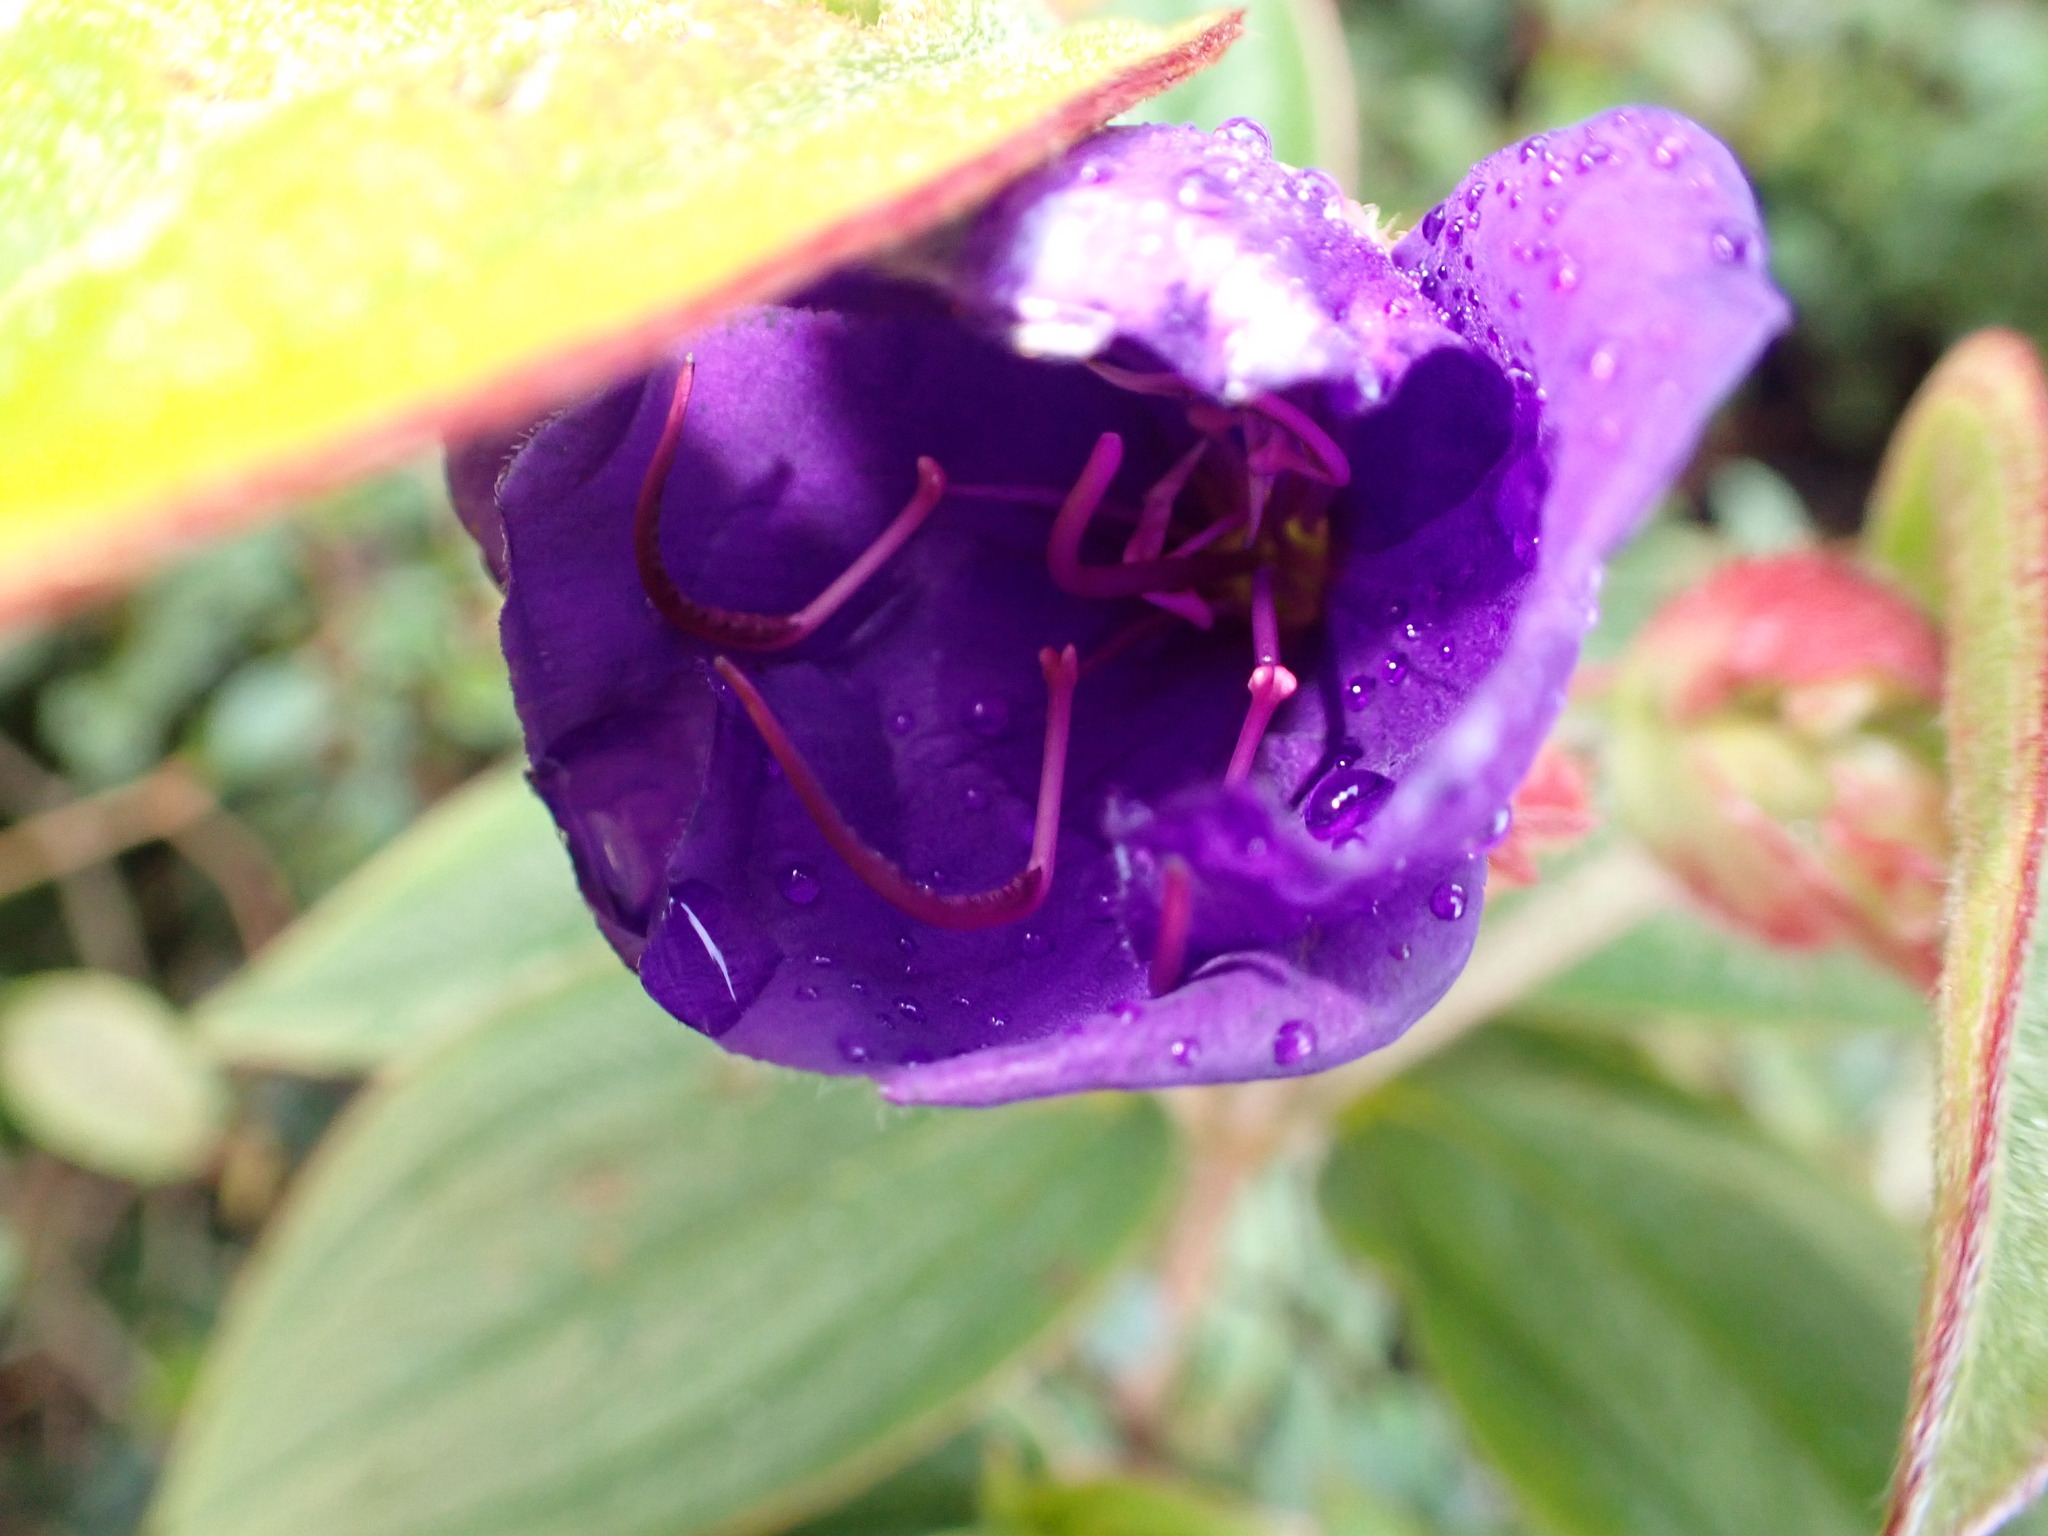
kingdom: Plantae
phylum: Tracheophyta
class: Magnoliopsida
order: Myrtales
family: Melastomataceae
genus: Pleroma
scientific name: Pleroma urvilleanum
